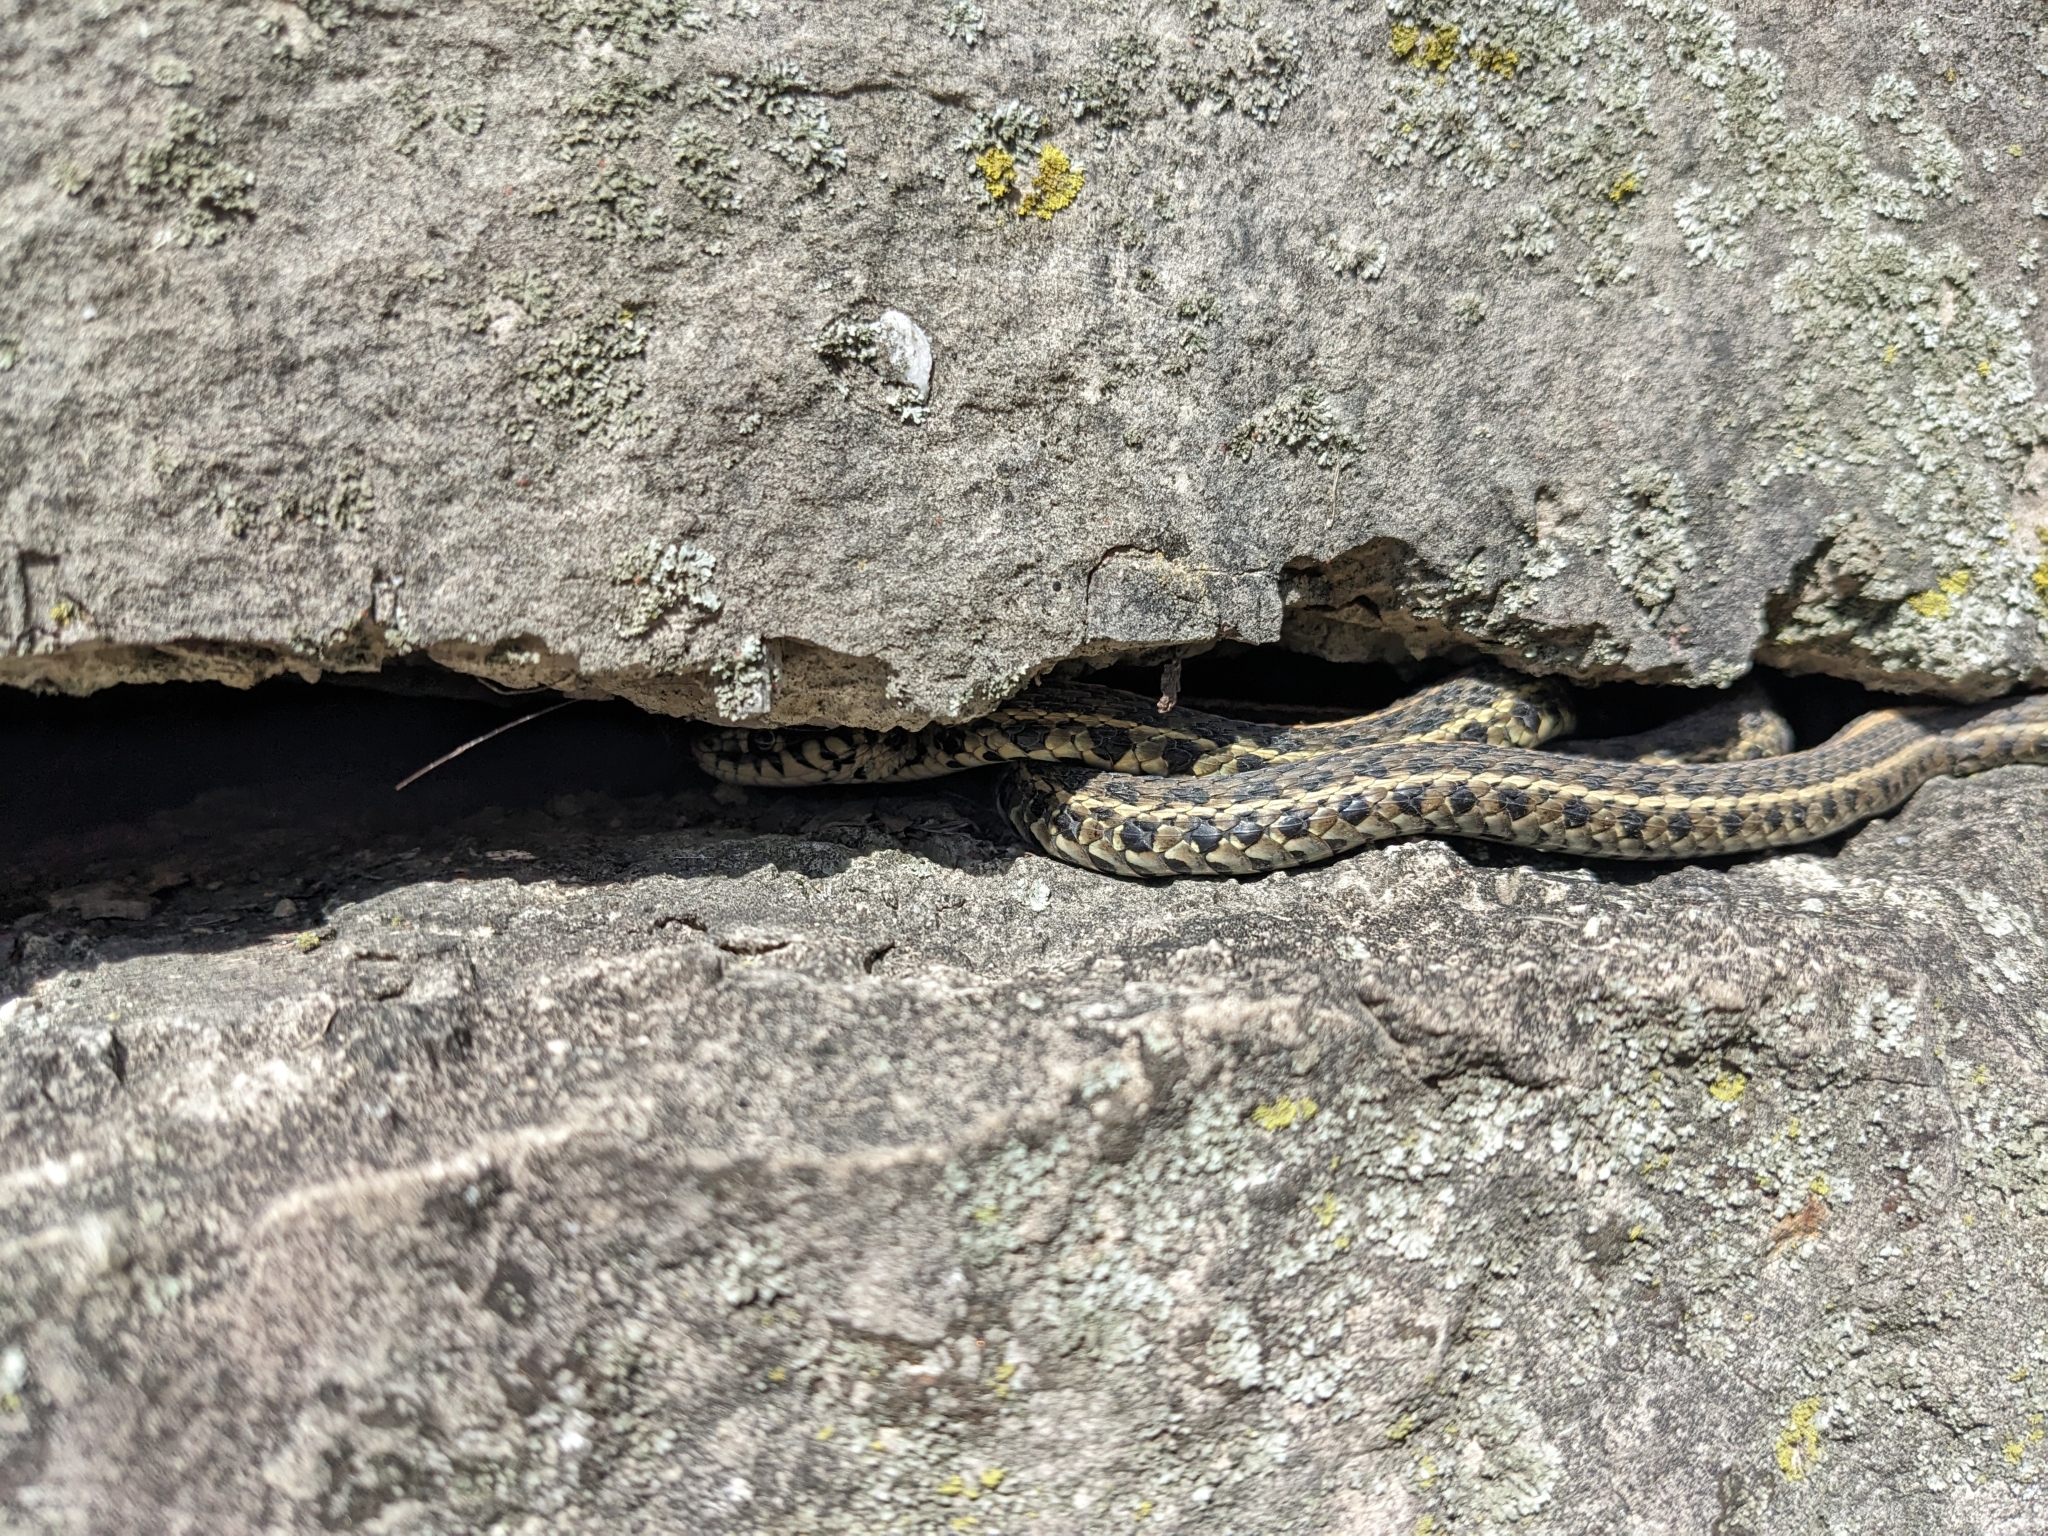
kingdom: Animalia
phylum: Chordata
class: Squamata
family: Colubridae
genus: Thamnophis
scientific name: Thamnophis radix
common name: Plains garter snake
